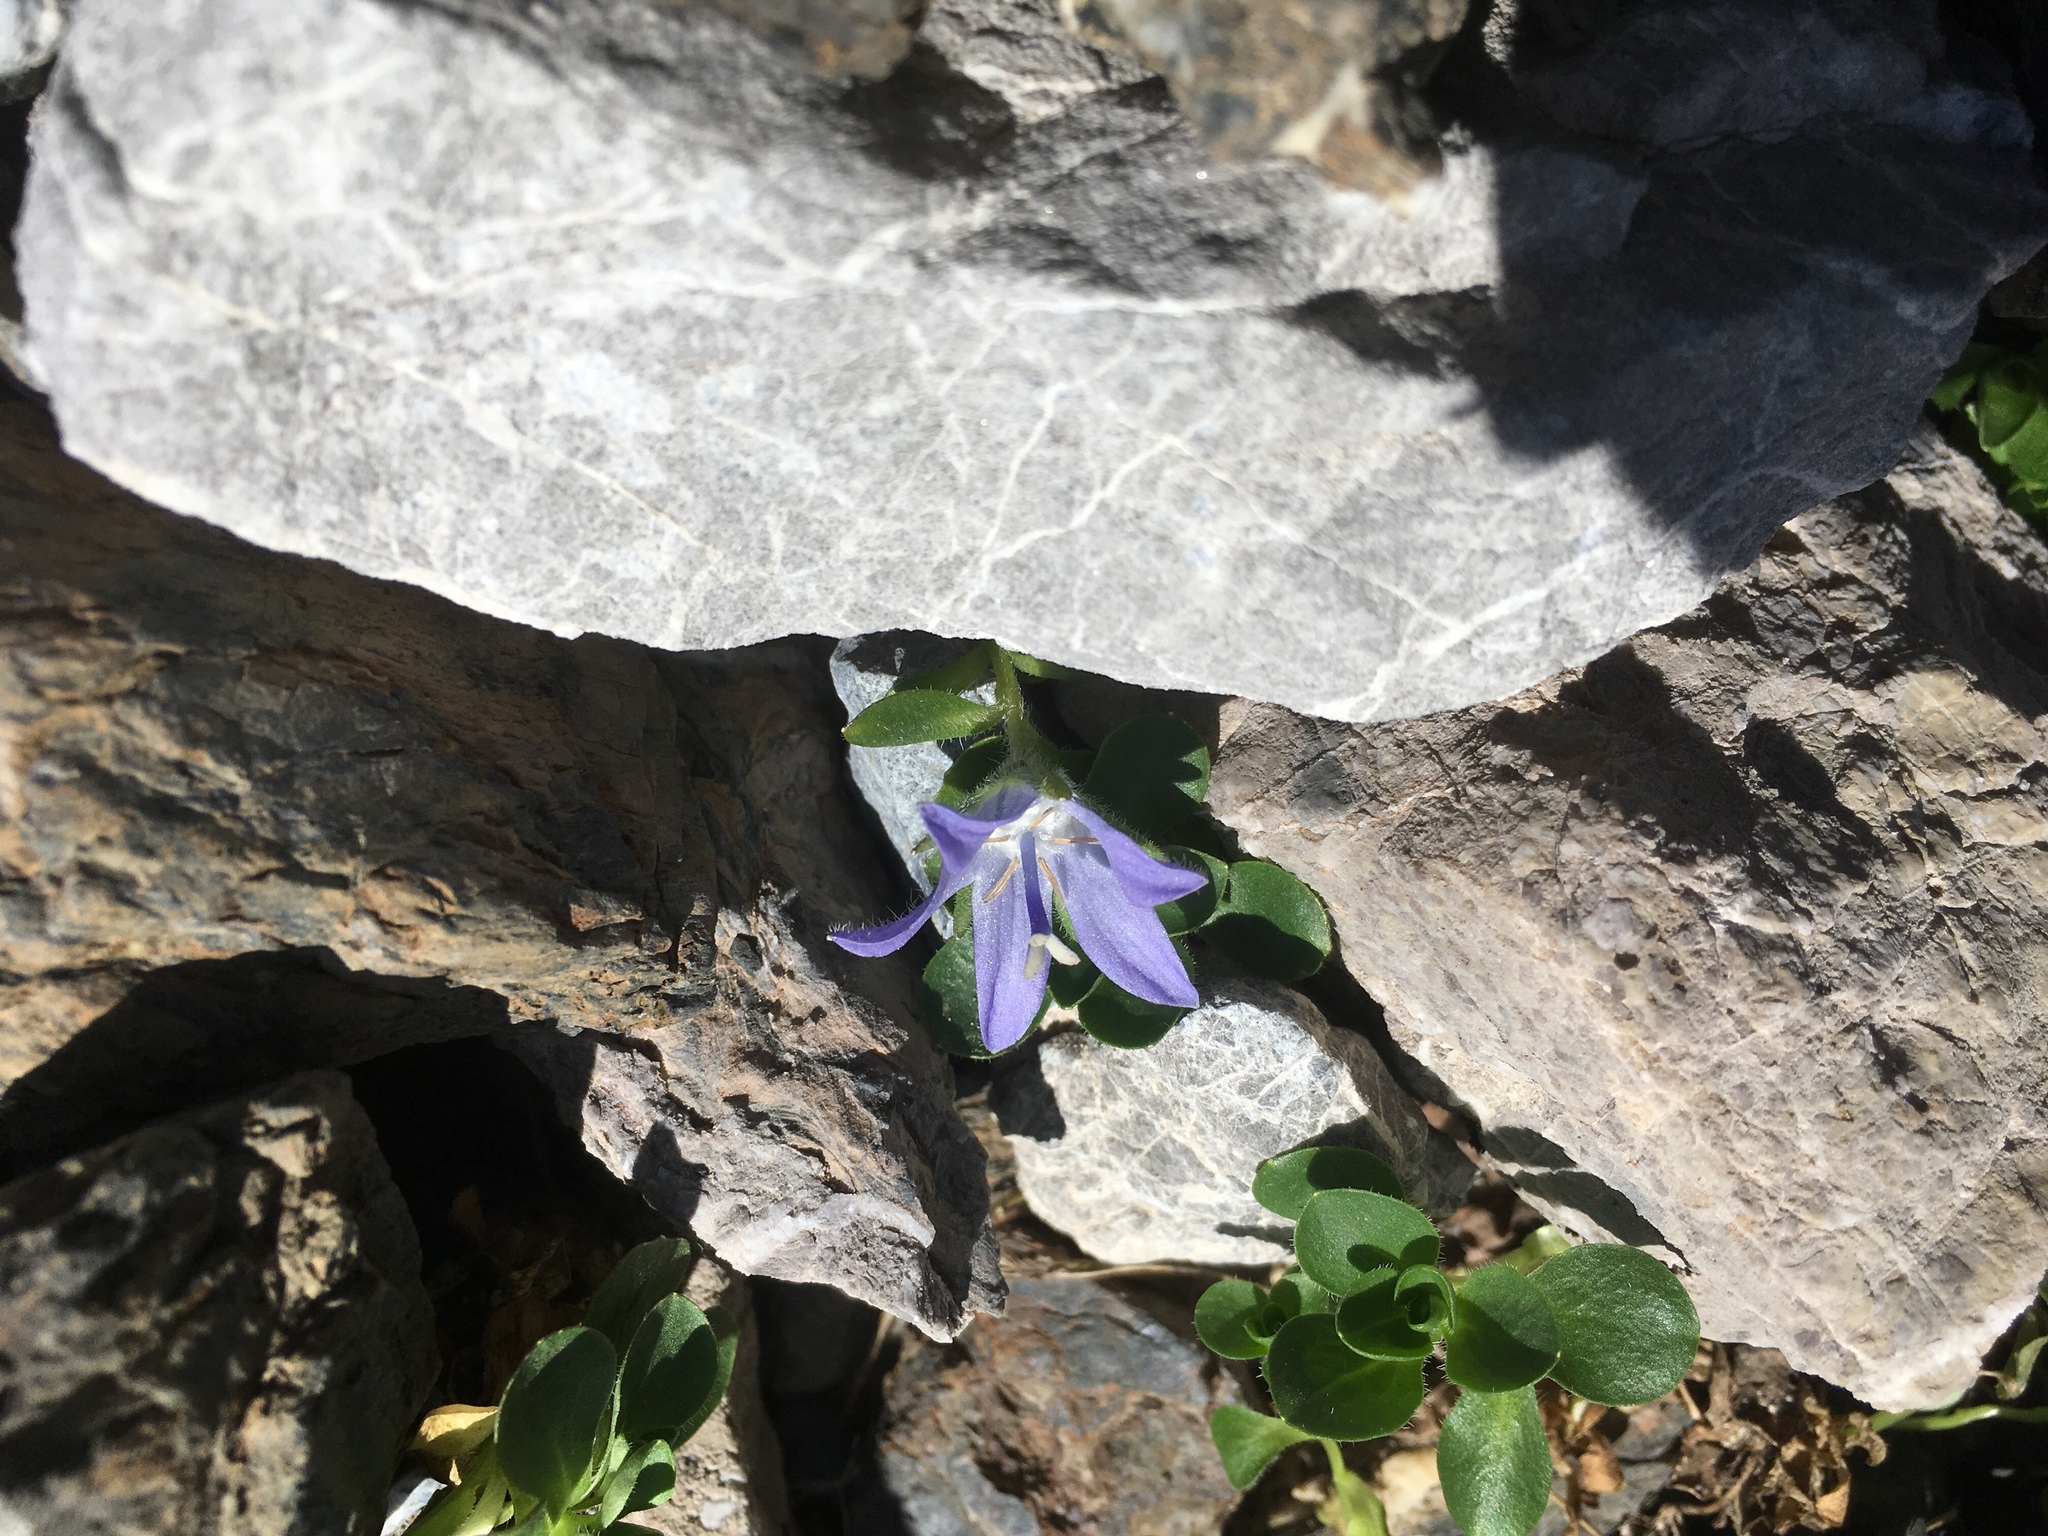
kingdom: Plantae
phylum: Tracheophyta
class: Magnoliopsida
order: Asterales
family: Campanulaceae
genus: Campanula
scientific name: Campanula cenisia
